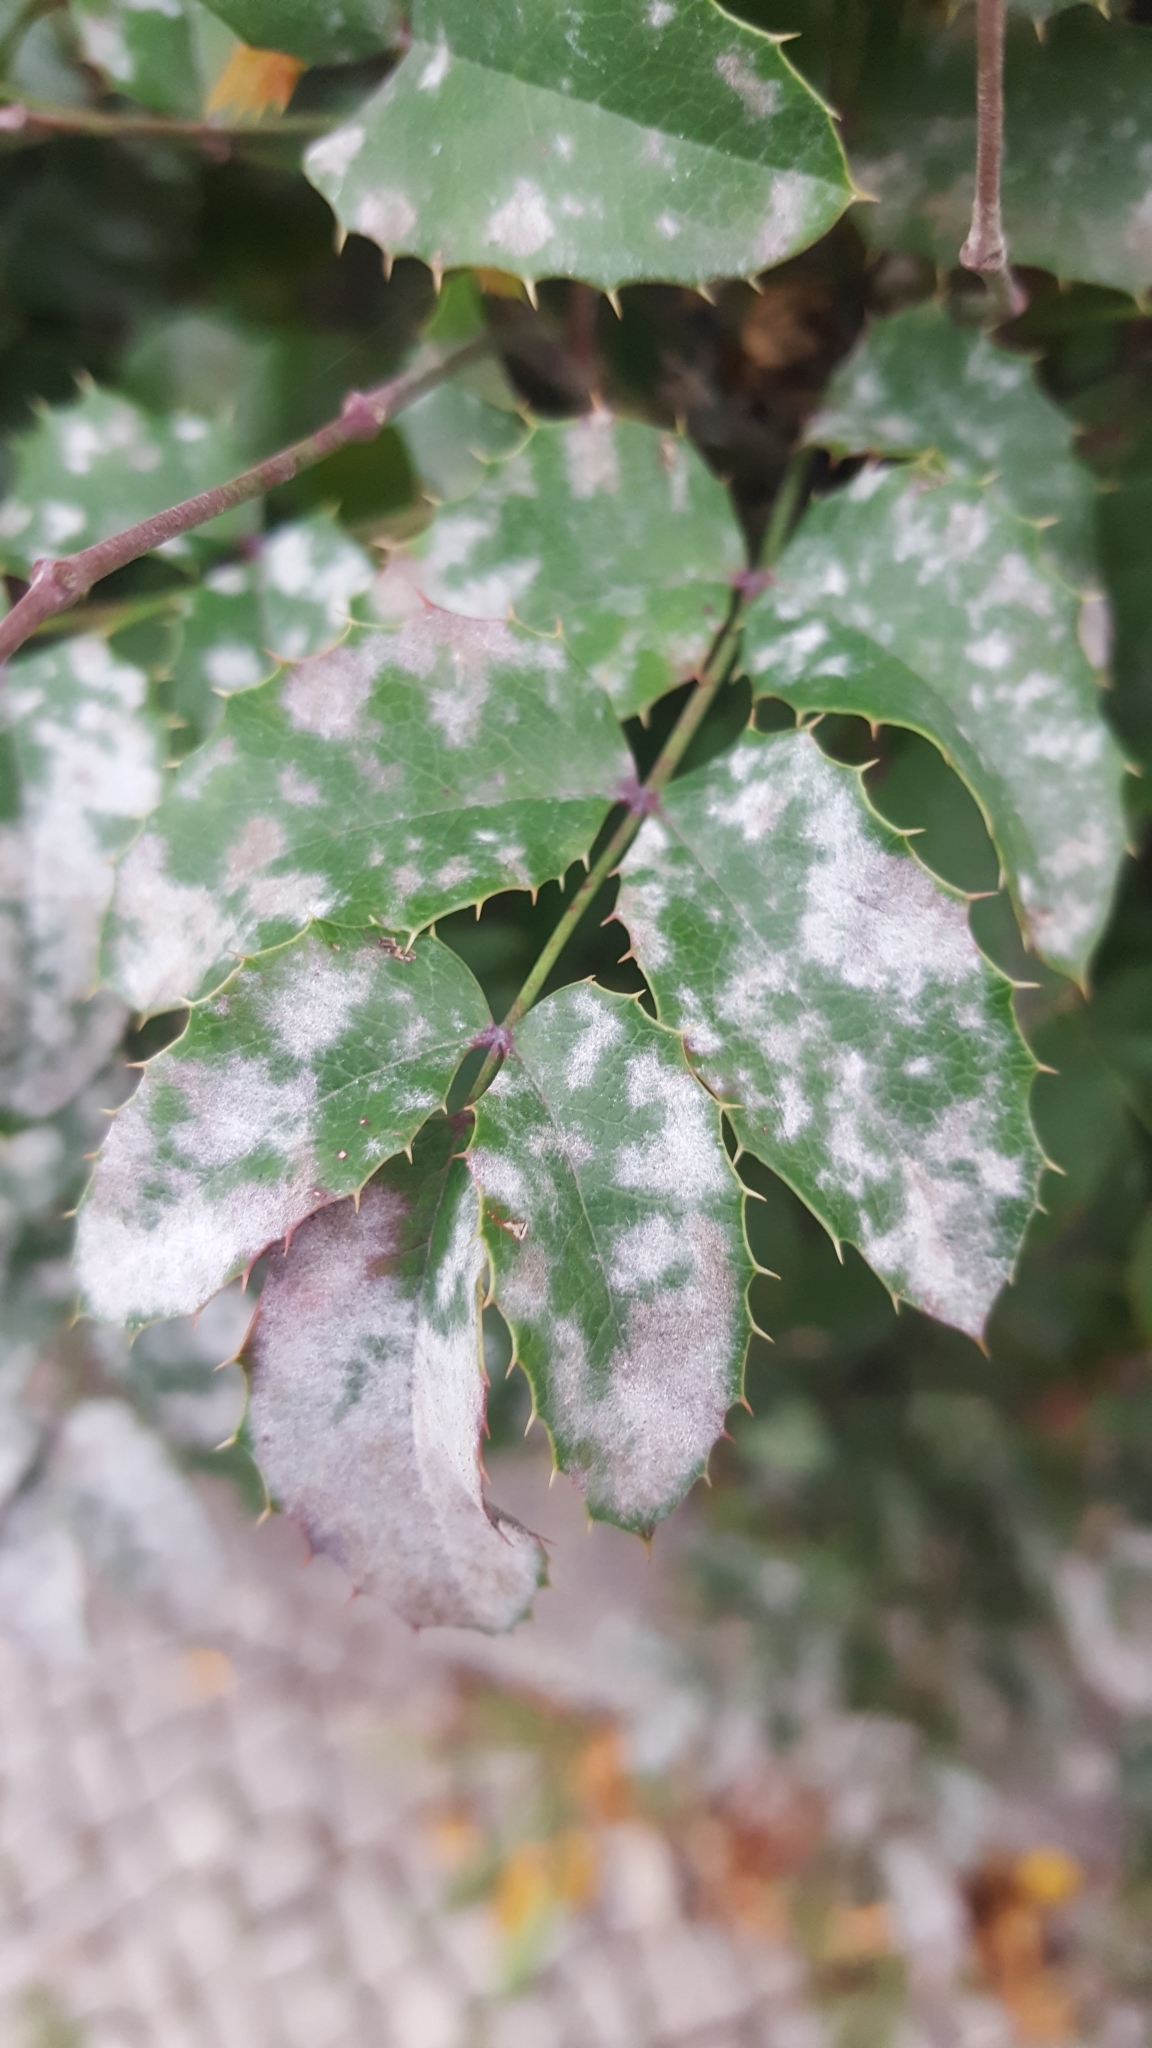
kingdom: Fungi
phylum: Ascomycota
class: Leotiomycetes
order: Helotiales
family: Erysiphaceae
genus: Erysiphe
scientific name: Erysiphe berberidis
